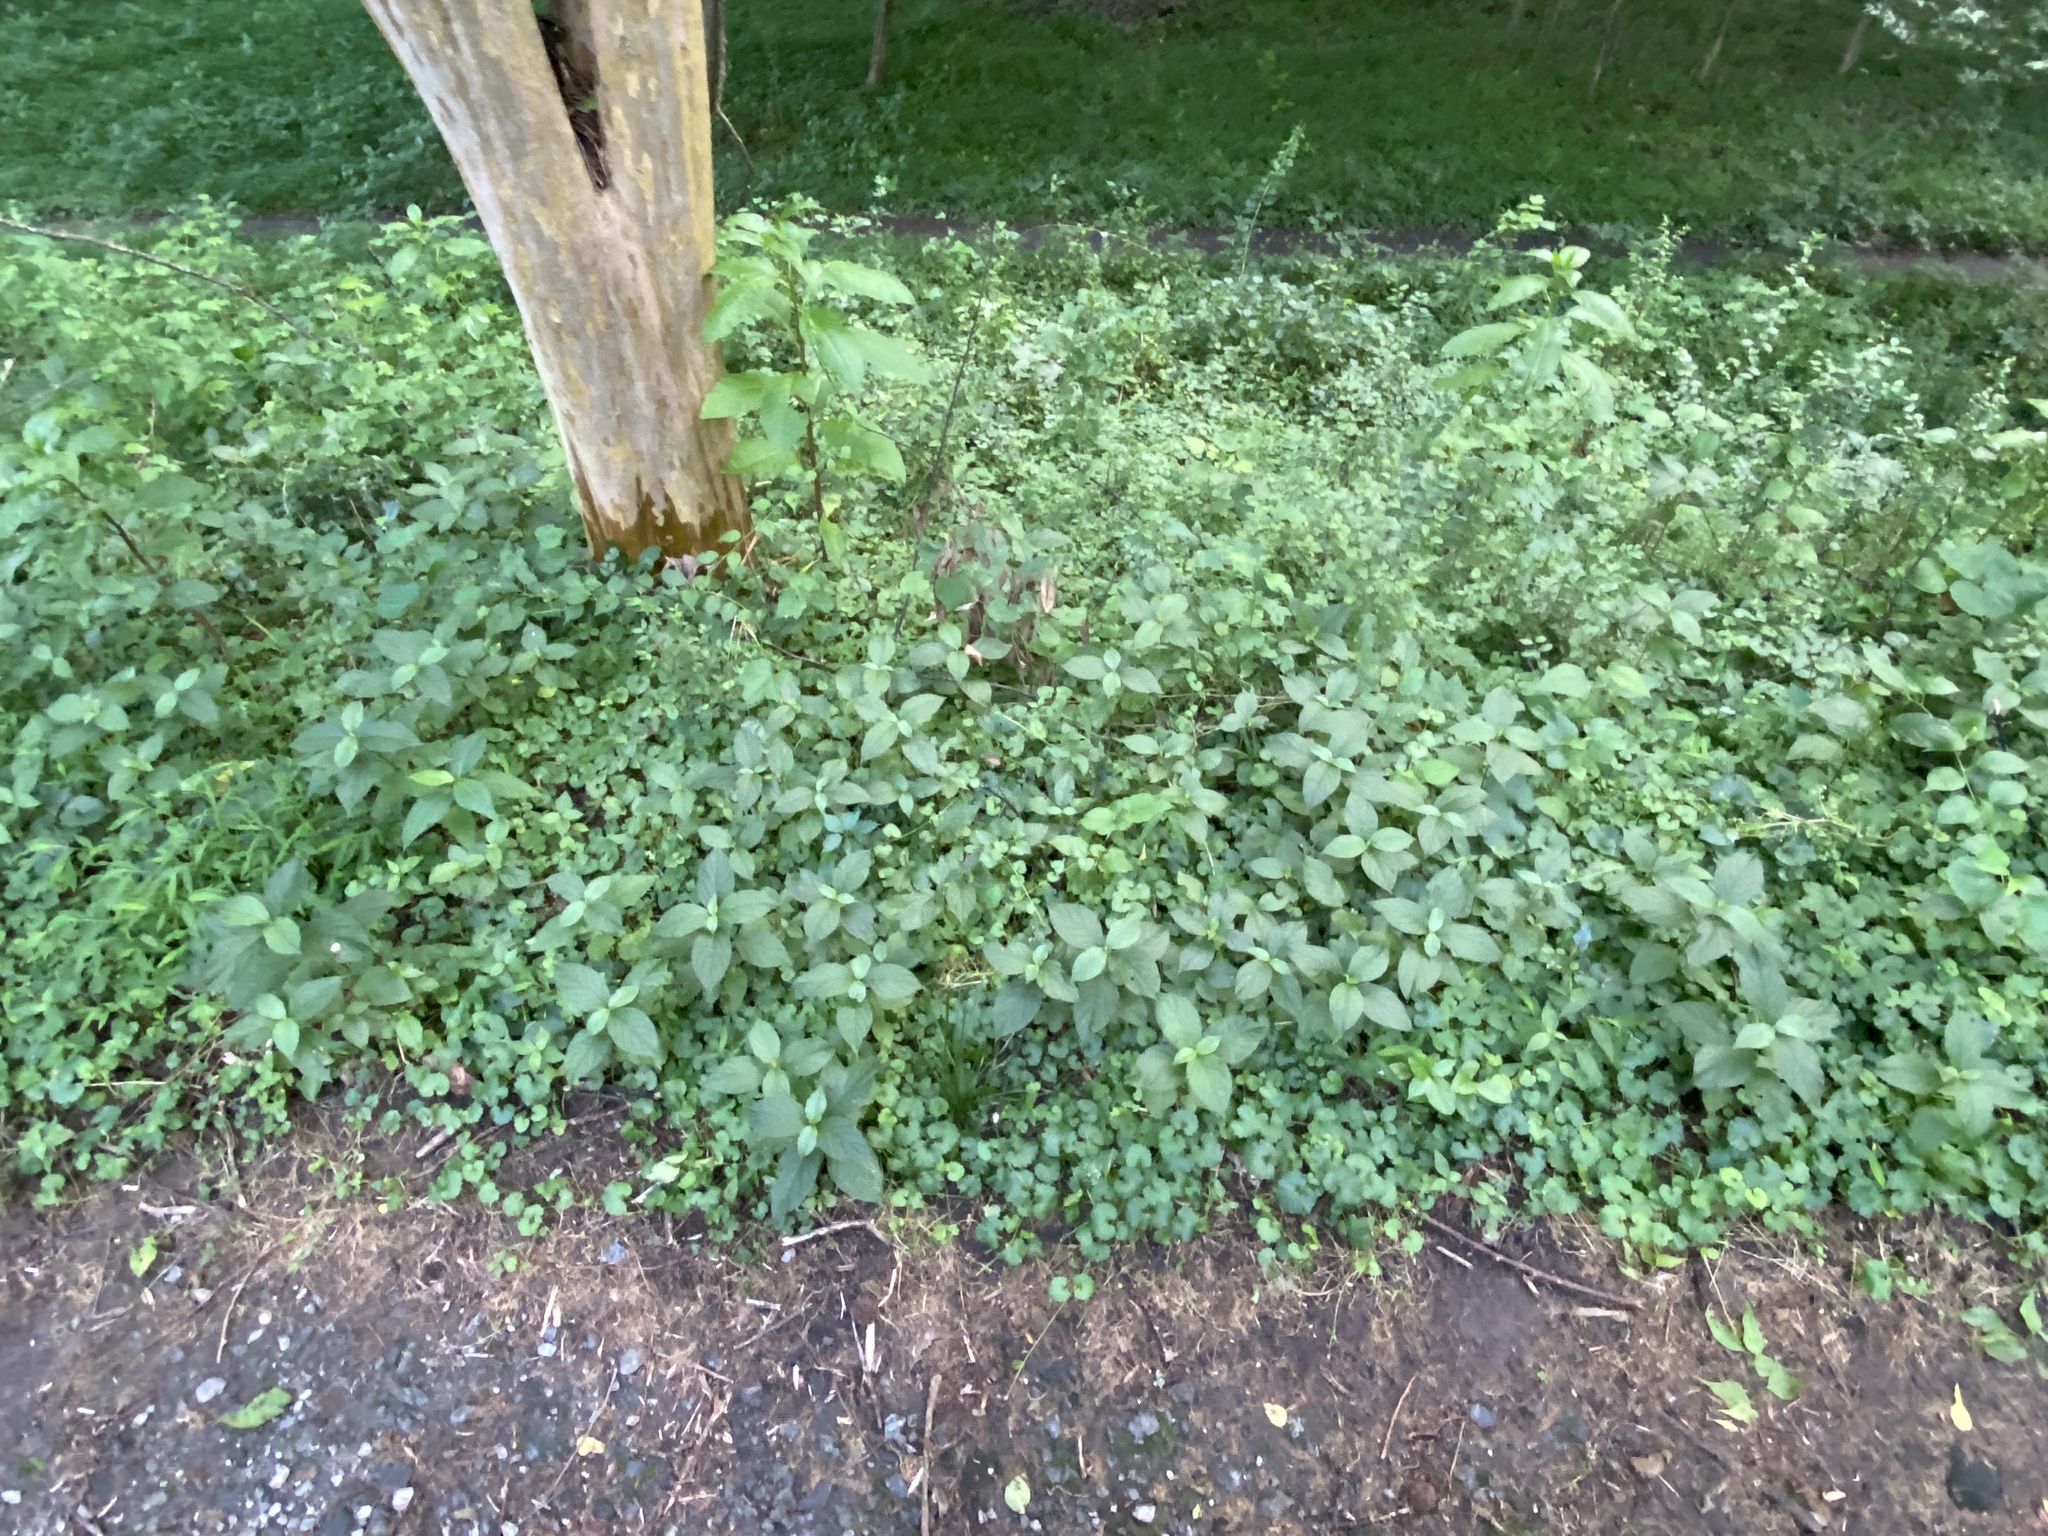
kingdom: Plantae
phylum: Tracheophyta
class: Magnoliopsida
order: Caryophyllales
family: Amaranthaceae
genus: Achyranthes
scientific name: Achyranthes bidentata
